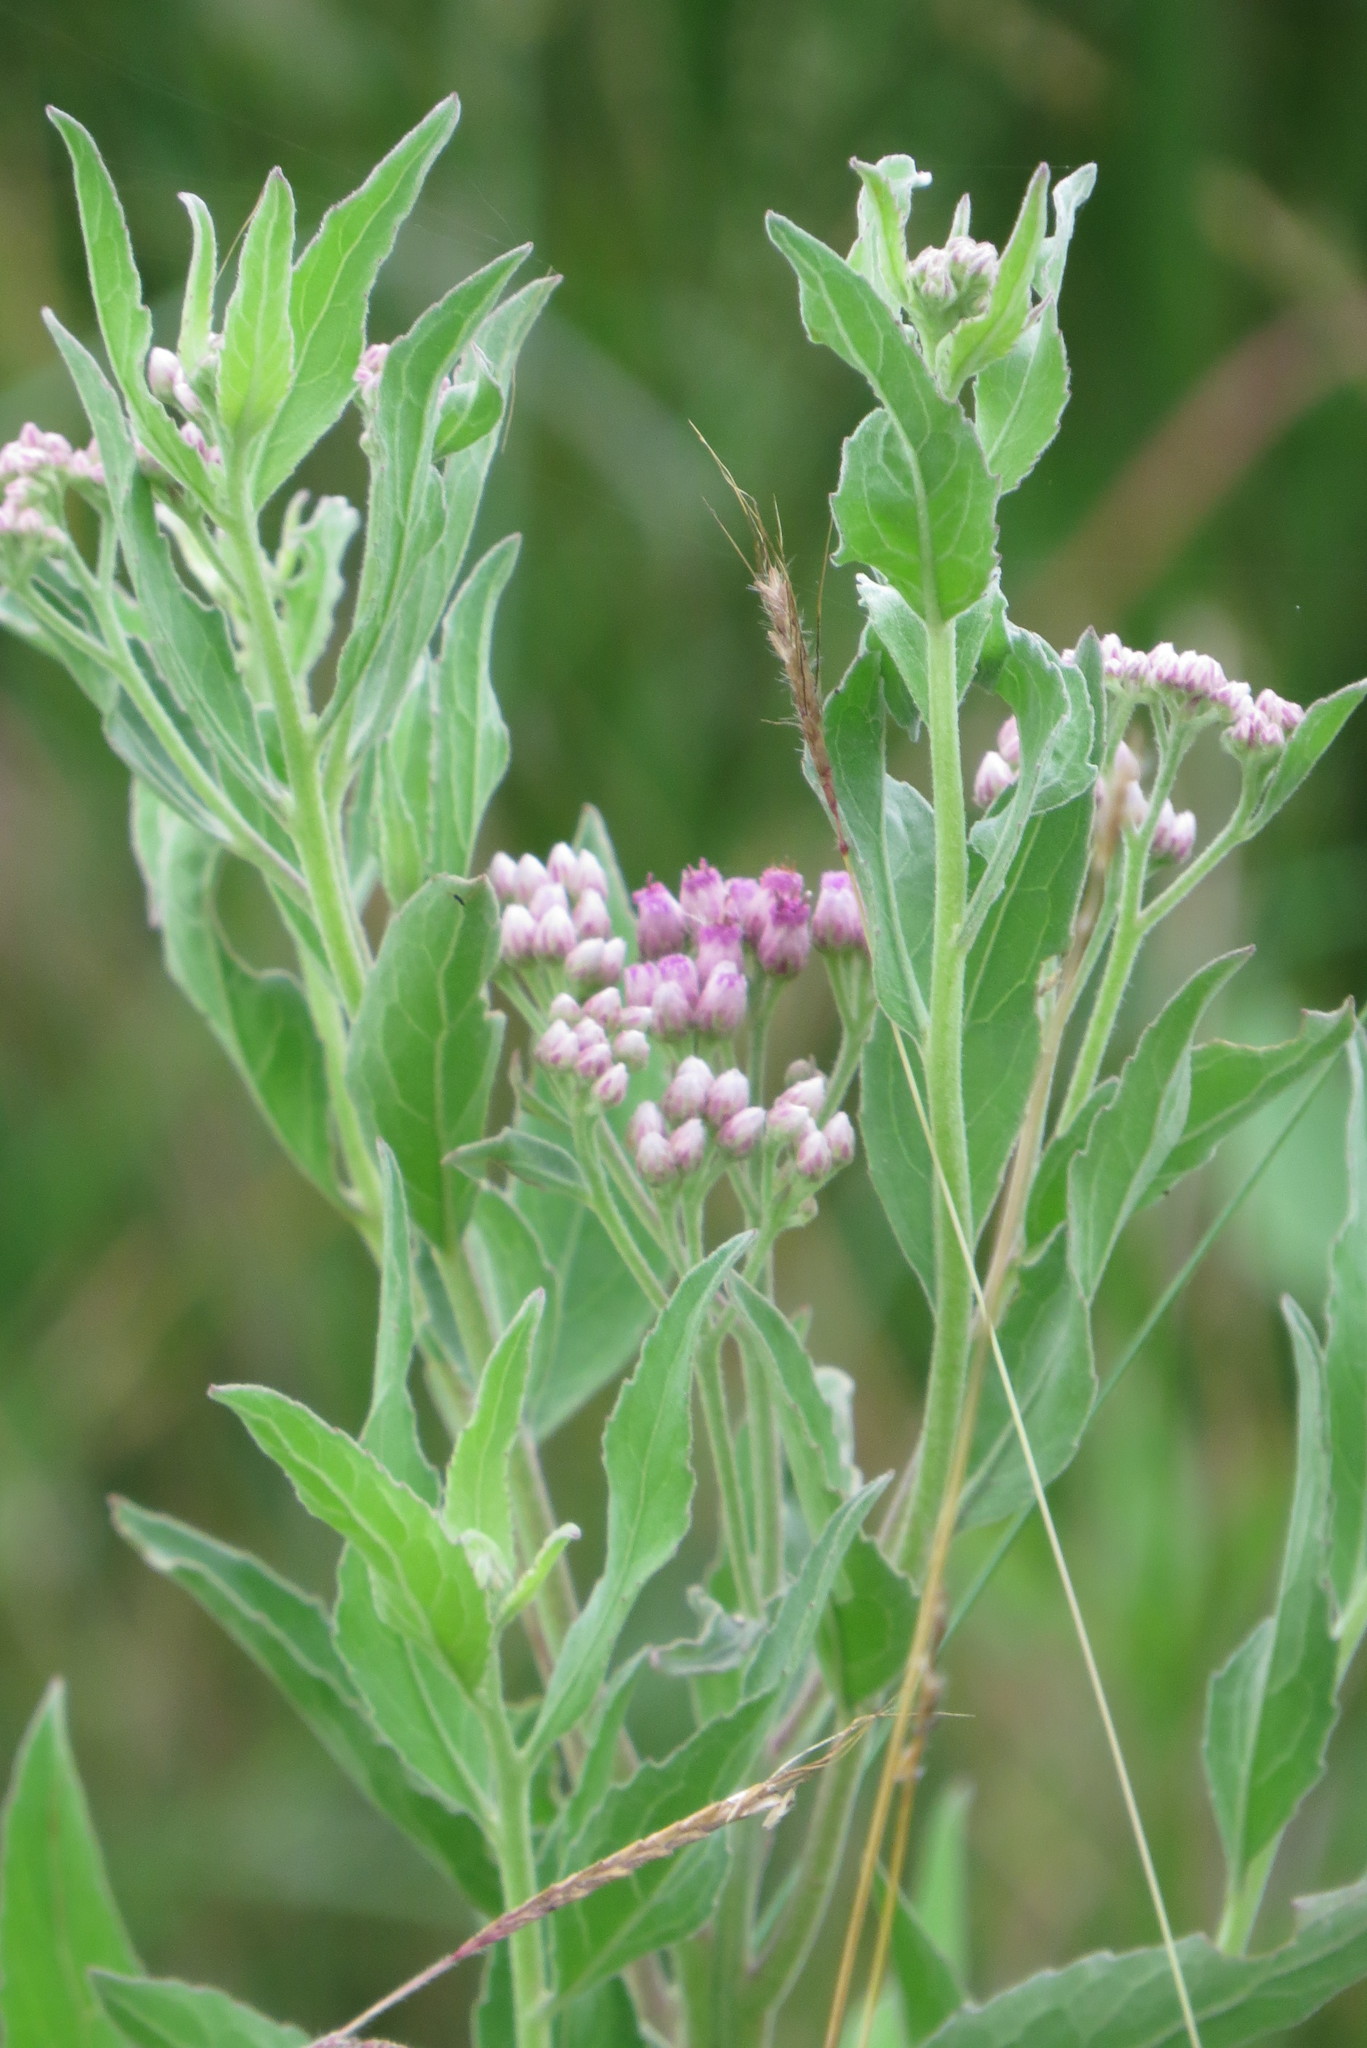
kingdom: Plantae
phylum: Tracheophyta
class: Magnoliopsida
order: Asterales
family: Asteraceae
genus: Pluchea
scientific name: Pluchea odorata
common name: Saltmarsh fleabane
